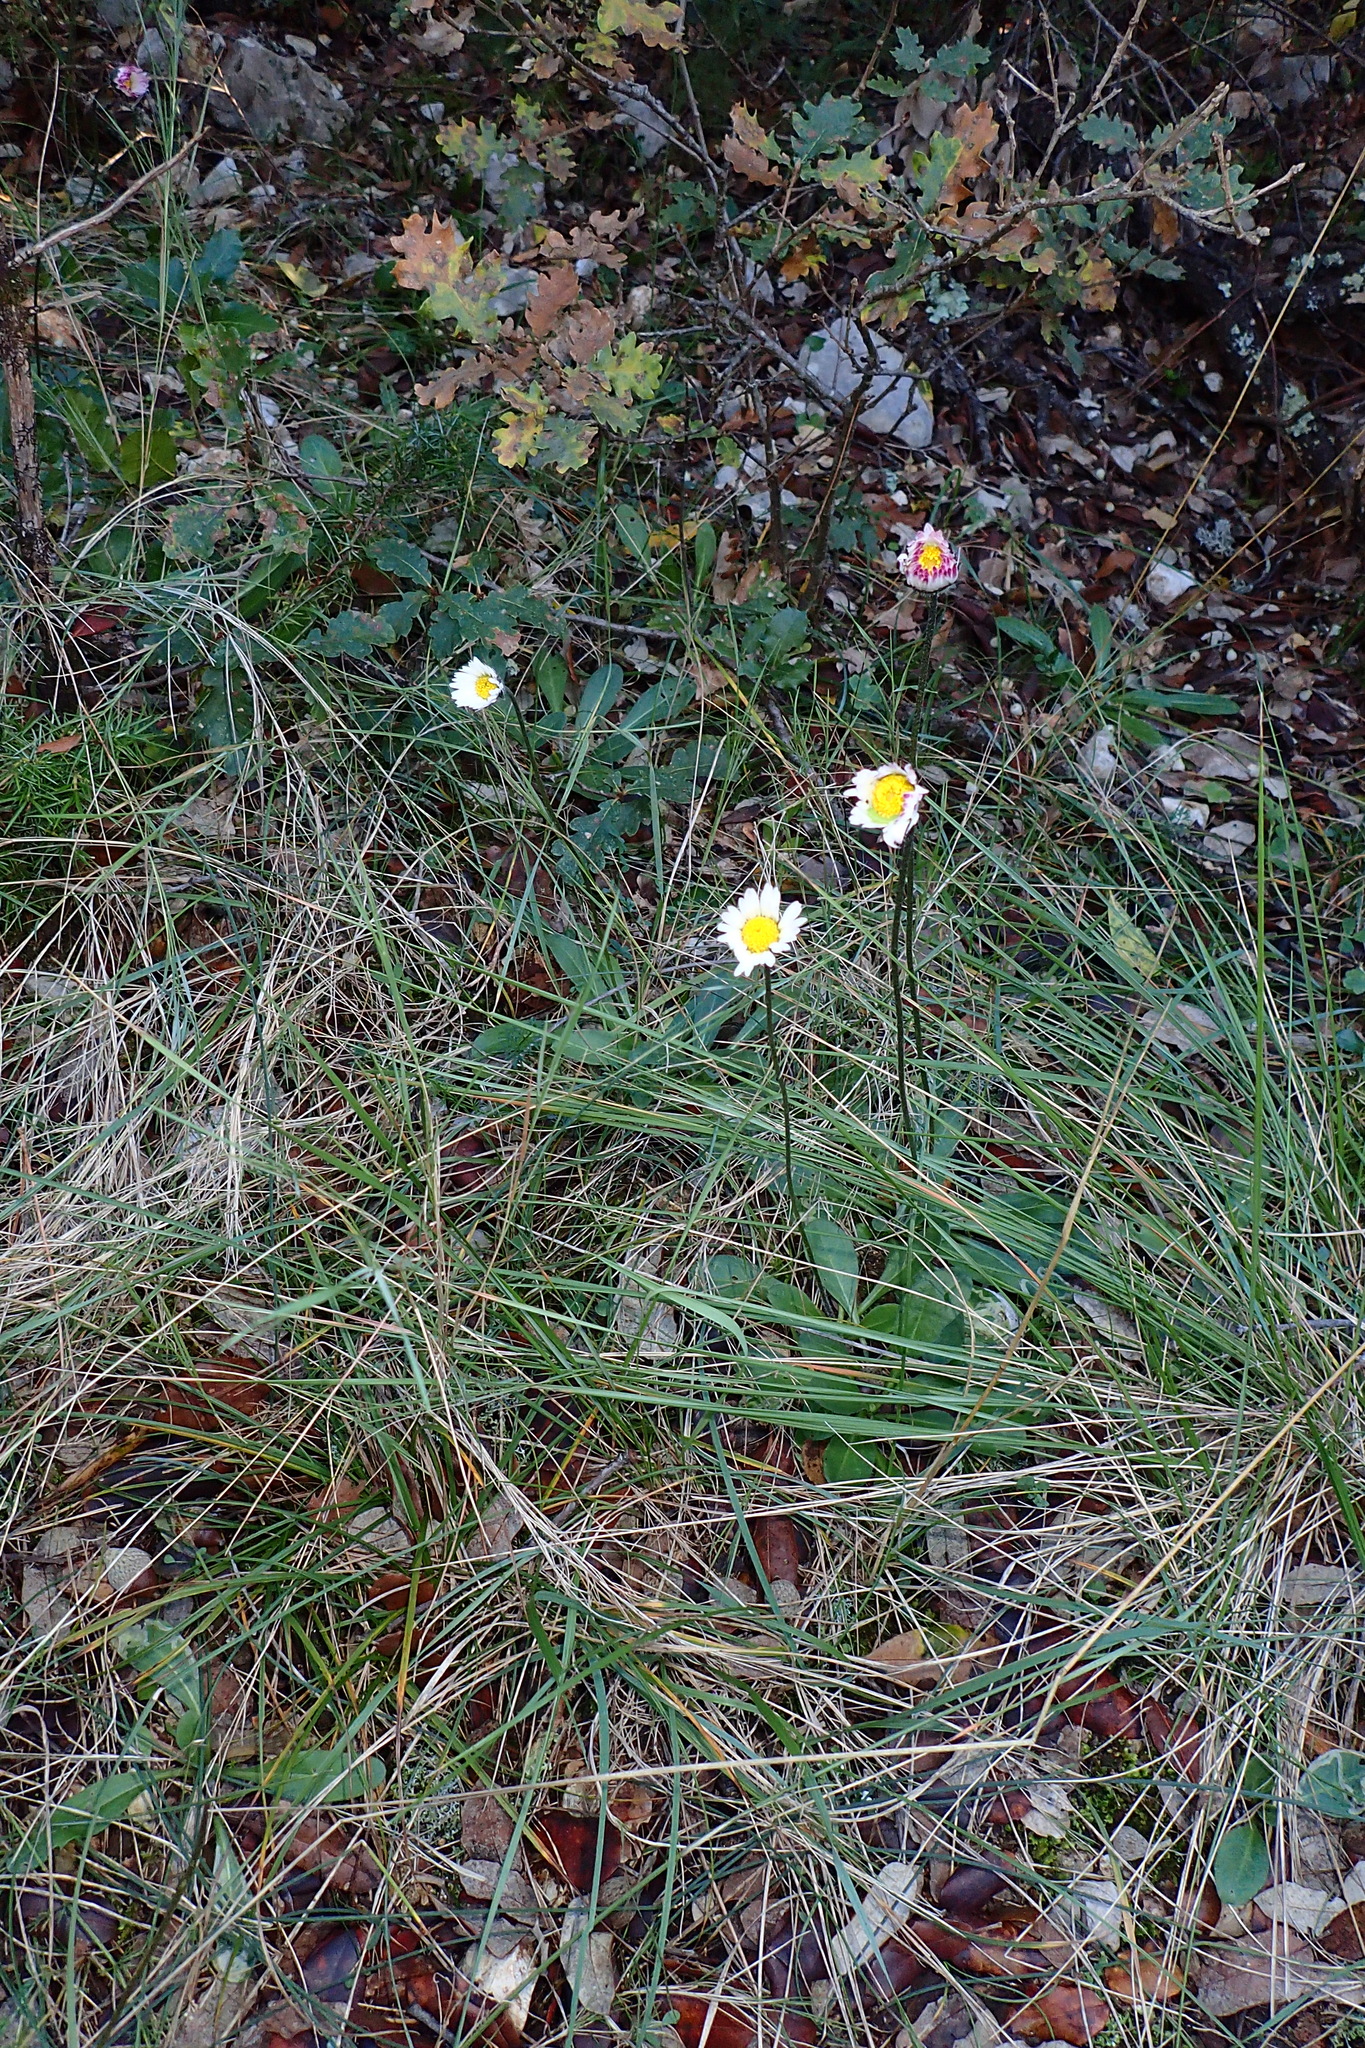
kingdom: Plantae
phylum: Tracheophyta
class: Magnoliopsida
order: Asterales
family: Asteraceae
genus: Bellis
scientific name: Bellis sylvestris
